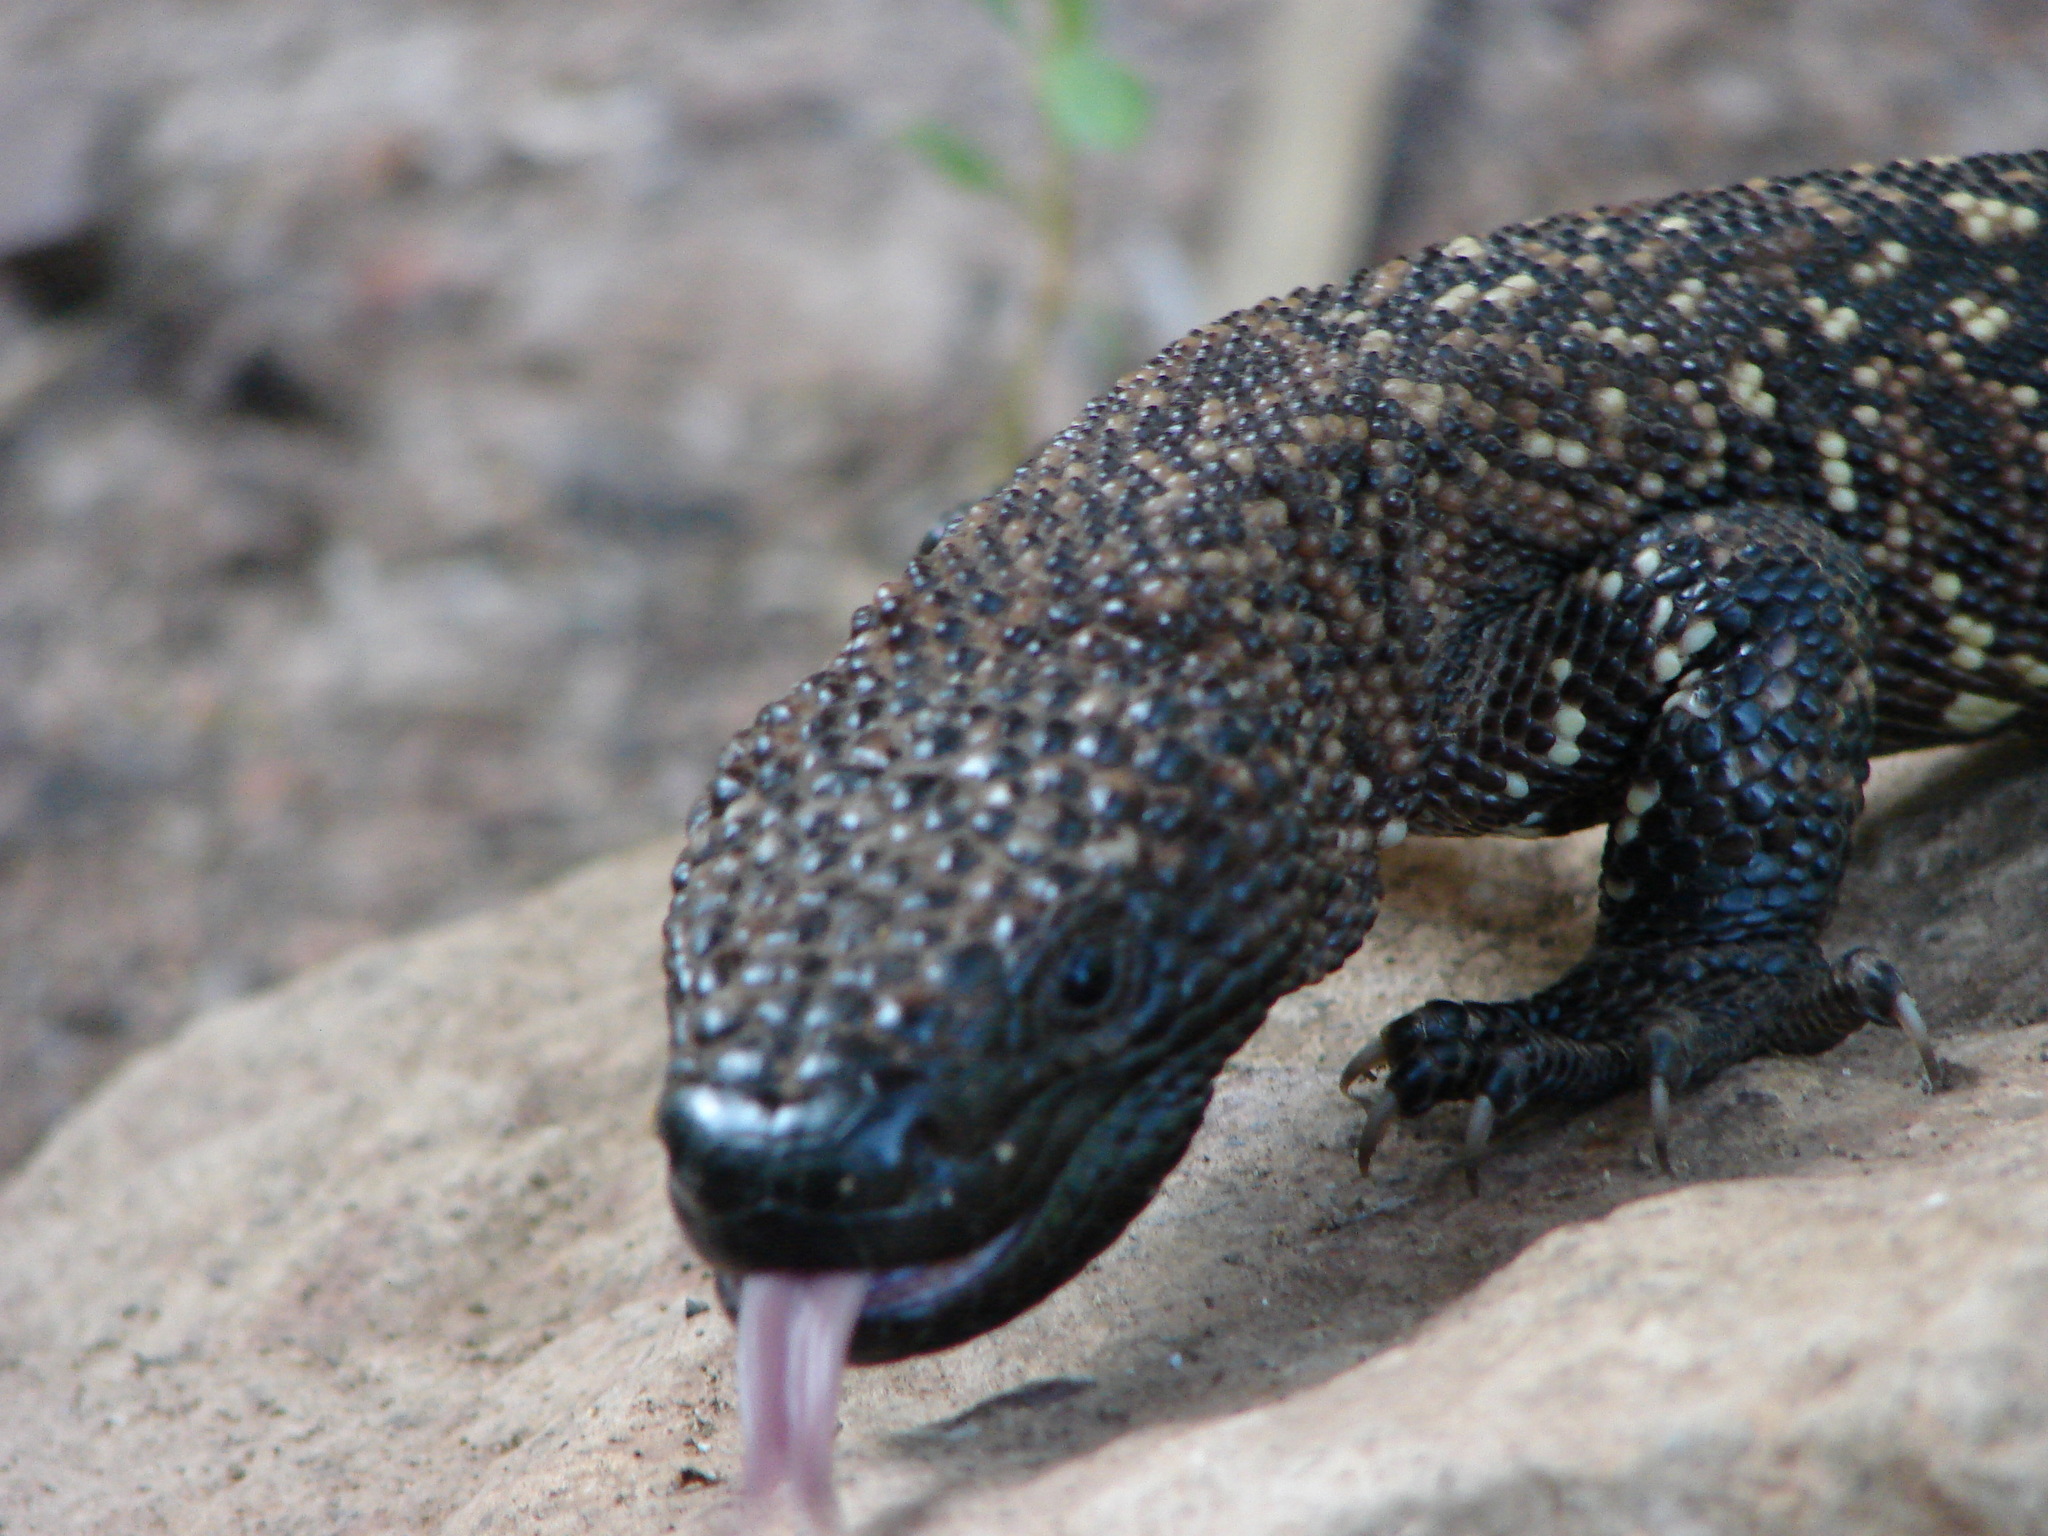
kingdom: Animalia
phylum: Chordata
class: Squamata
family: Helodermatidae
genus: Heloderma
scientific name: Heloderma horridum
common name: Mexican beaded lizard
